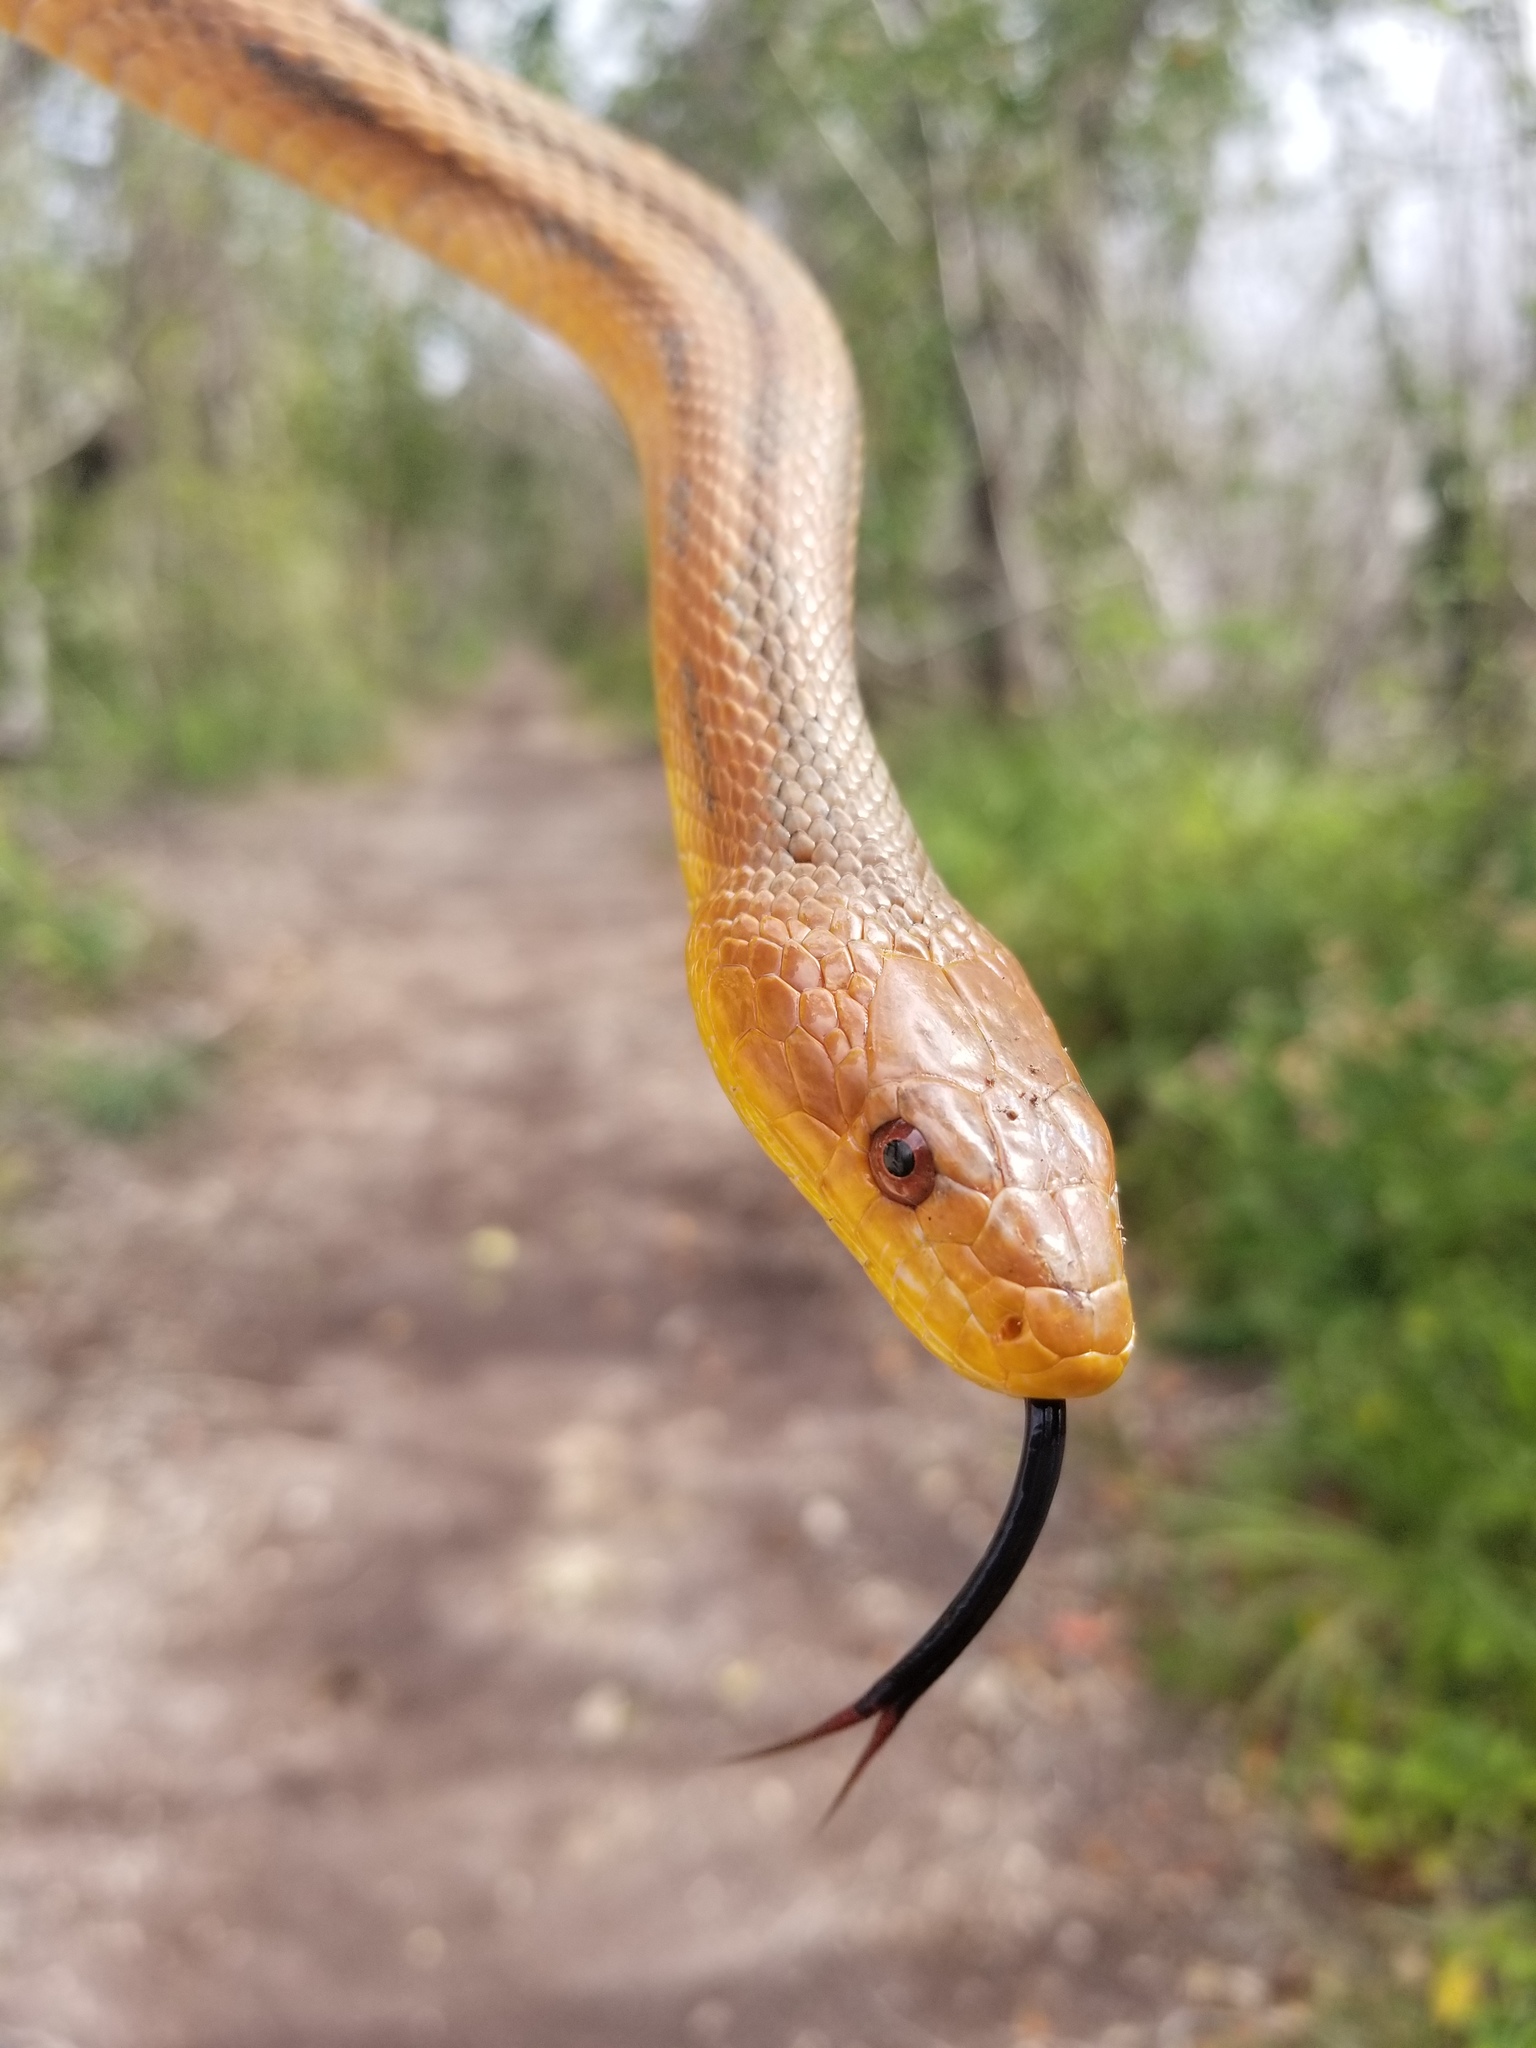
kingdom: Animalia
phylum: Chordata
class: Squamata
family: Colubridae
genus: Pantherophis
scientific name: Pantherophis alleghaniensis
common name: Eastern rat snake
